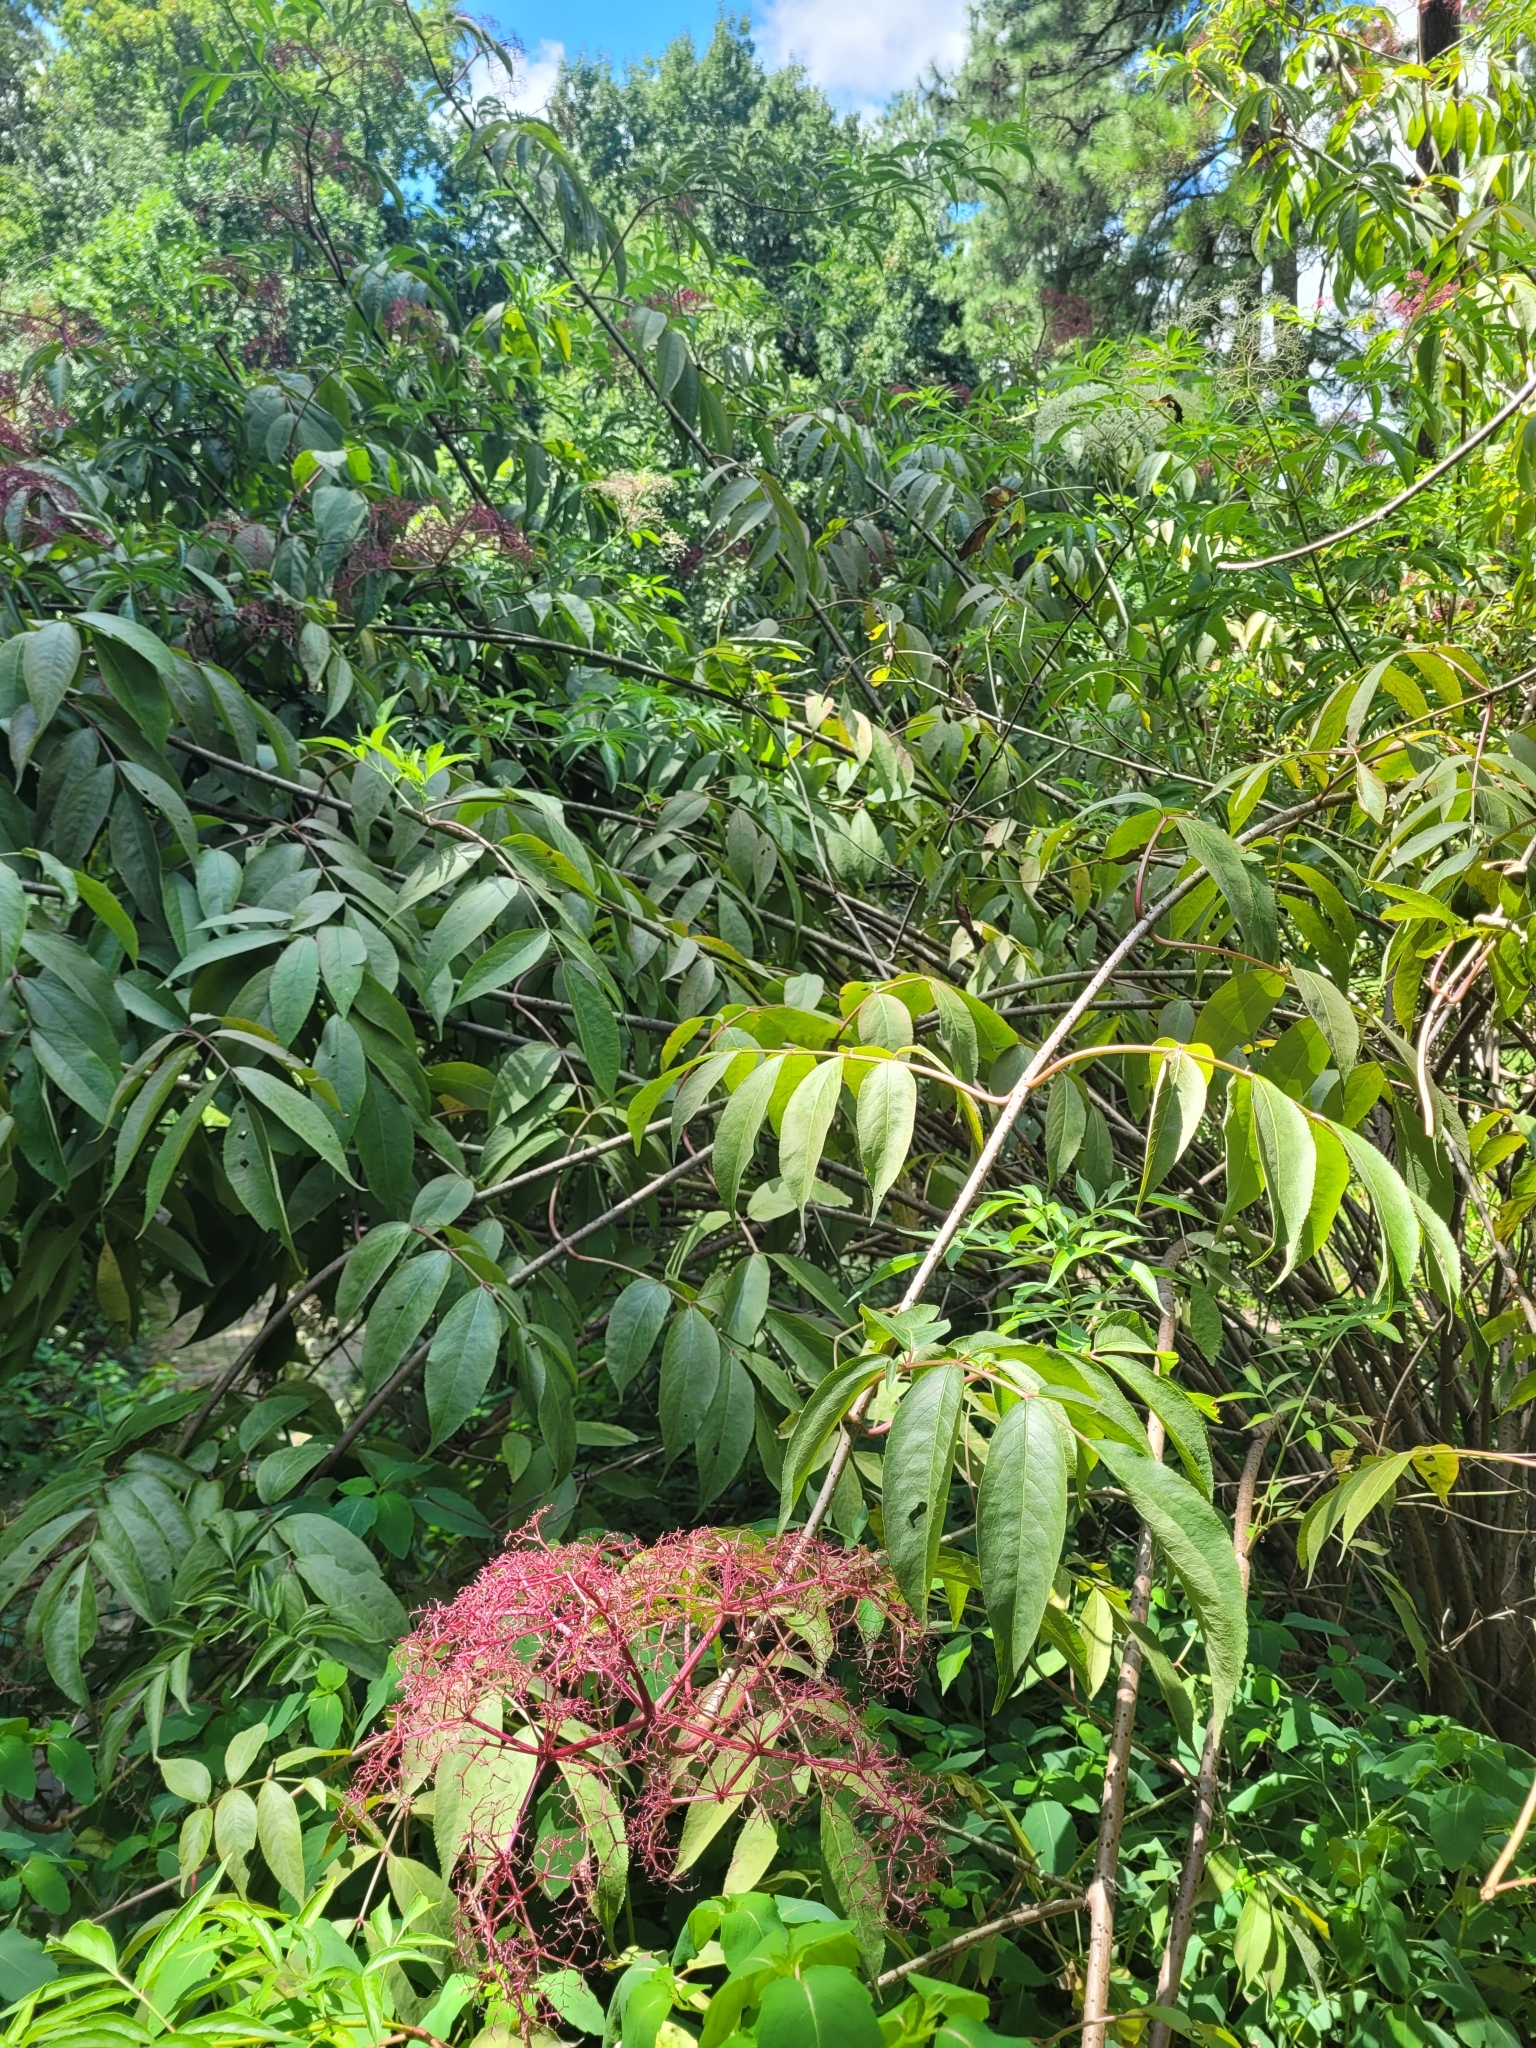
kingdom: Plantae
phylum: Tracheophyta
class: Magnoliopsida
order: Dipsacales
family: Viburnaceae
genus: Sambucus
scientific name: Sambucus canadensis
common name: American elder
